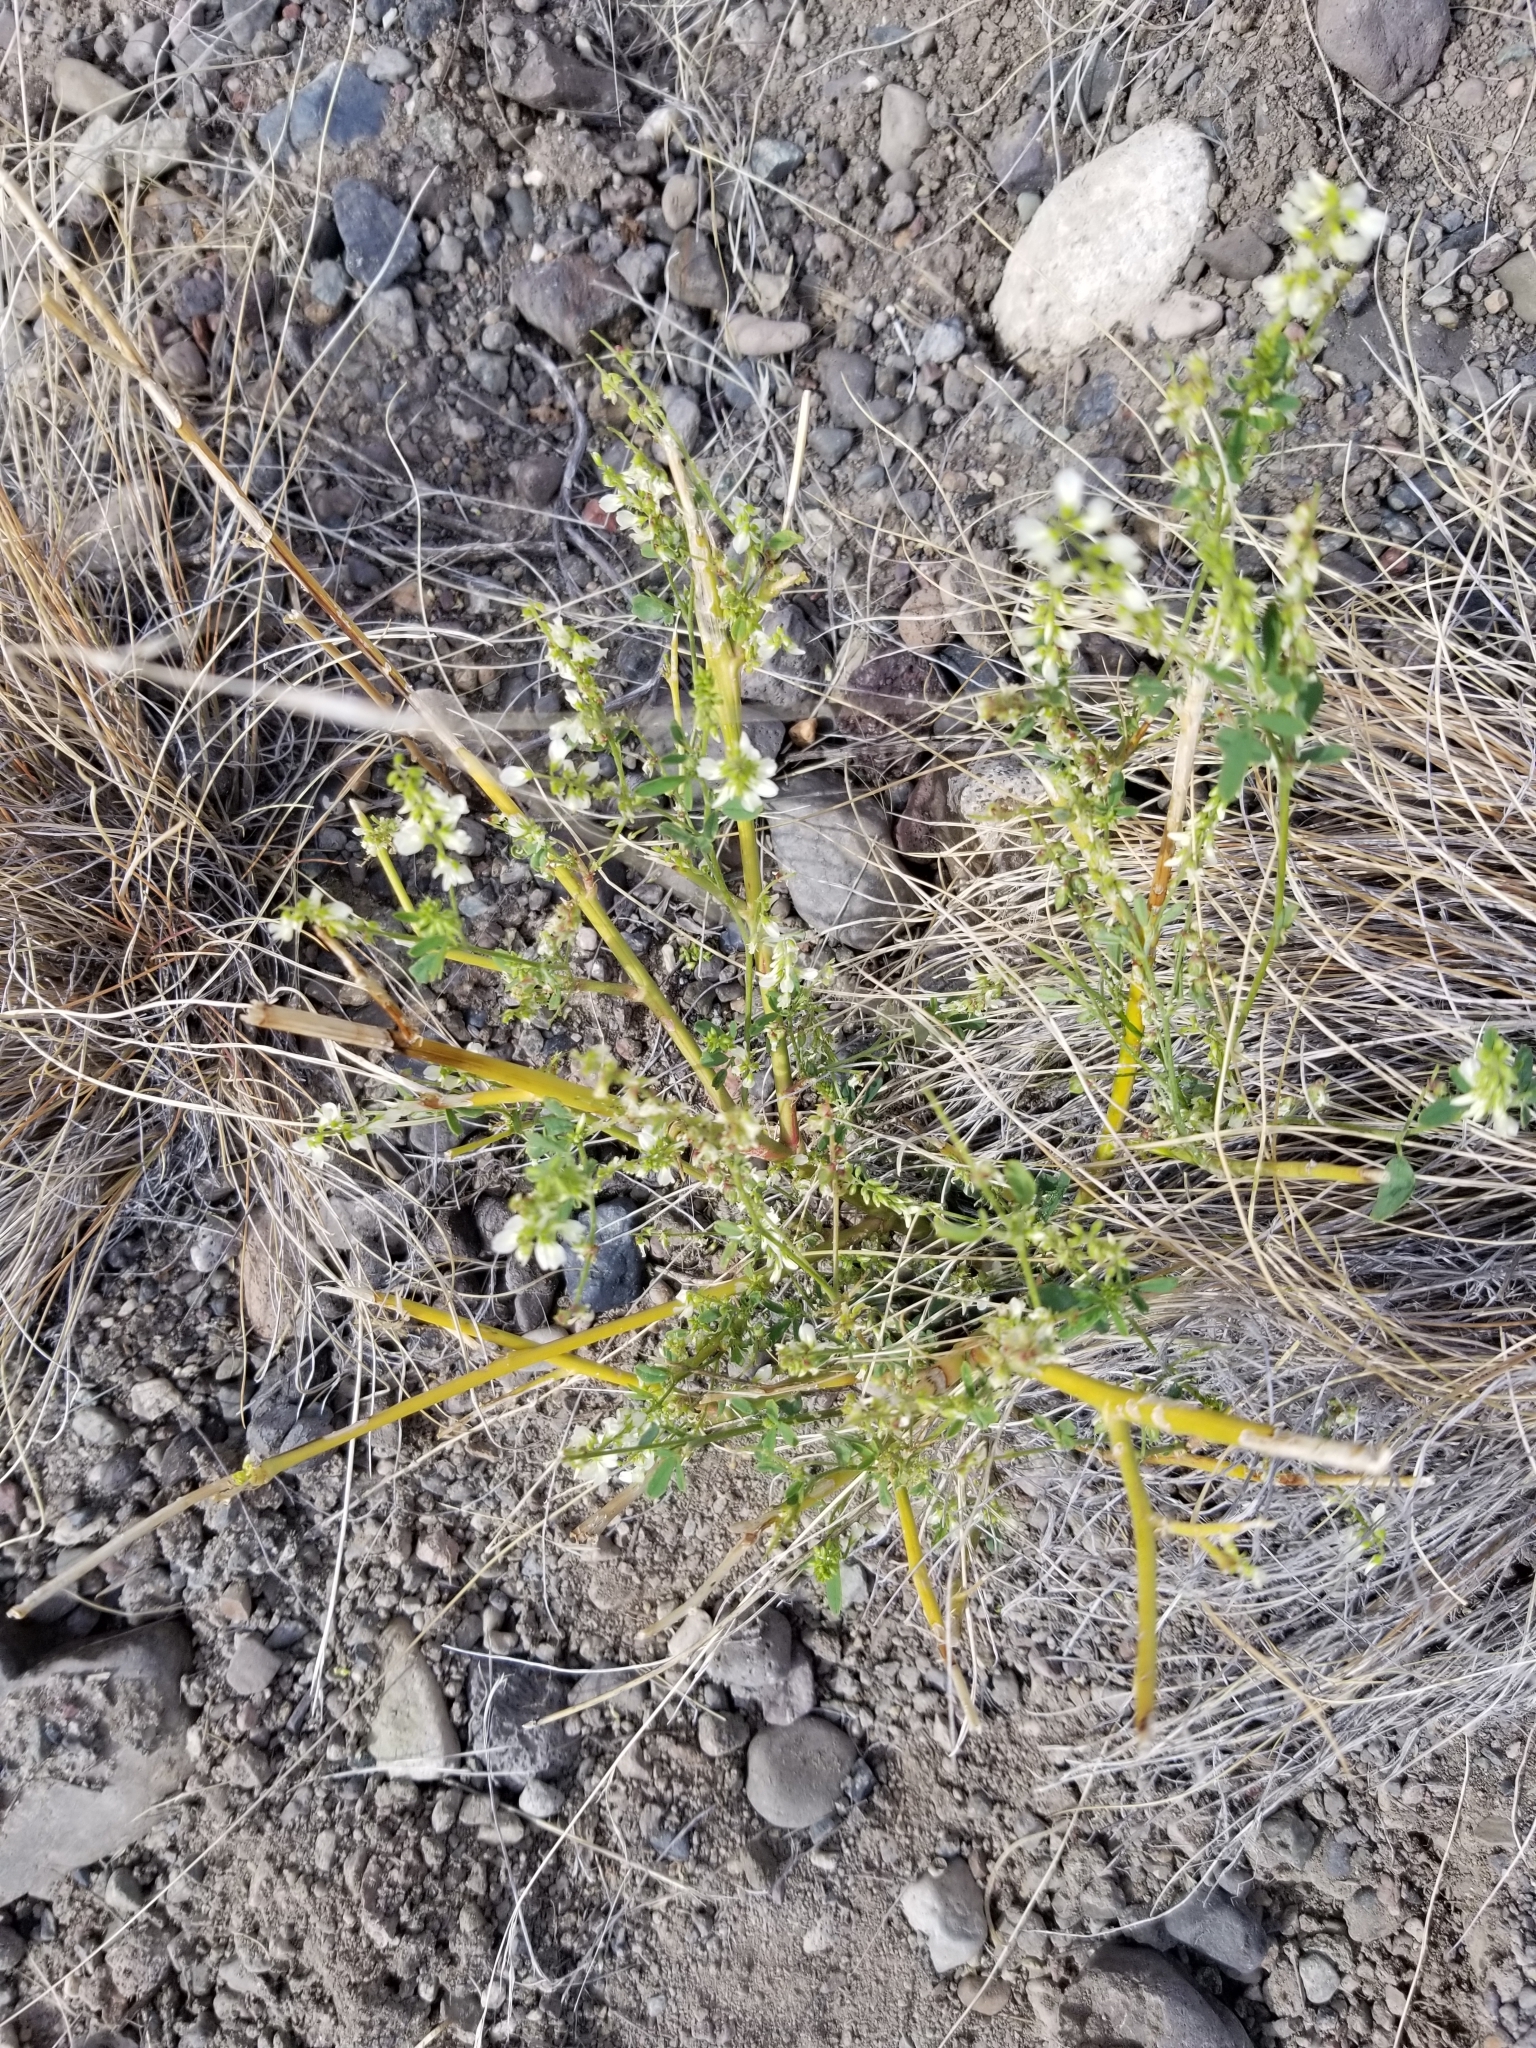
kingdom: Plantae
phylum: Tracheophyta
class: Magnoliopsida
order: Fabales
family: Fabaceae
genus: Melilotus
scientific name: Melilotus albus
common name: White melilot
